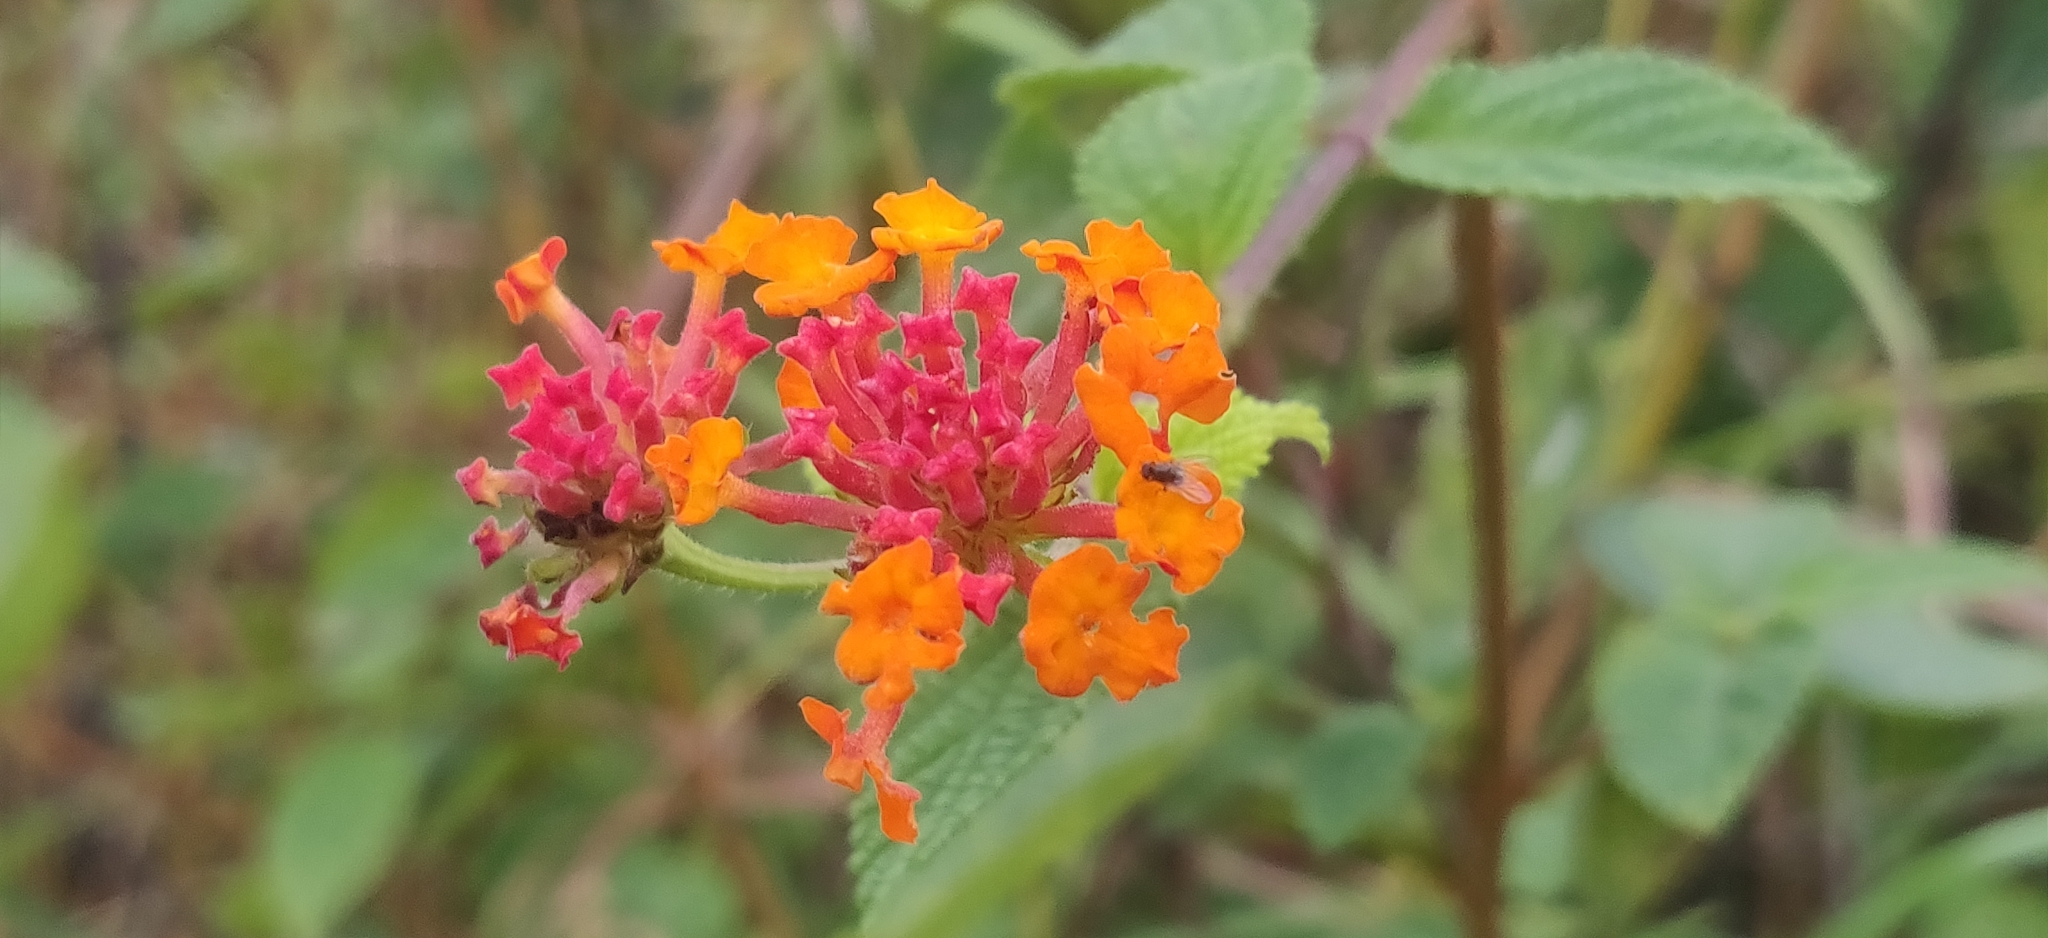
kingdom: Plantae
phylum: Tracheophyta
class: Magnoliopsida
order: Lamiales
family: Verbenaceae
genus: Lantana
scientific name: Lantana camara
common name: Lantana
